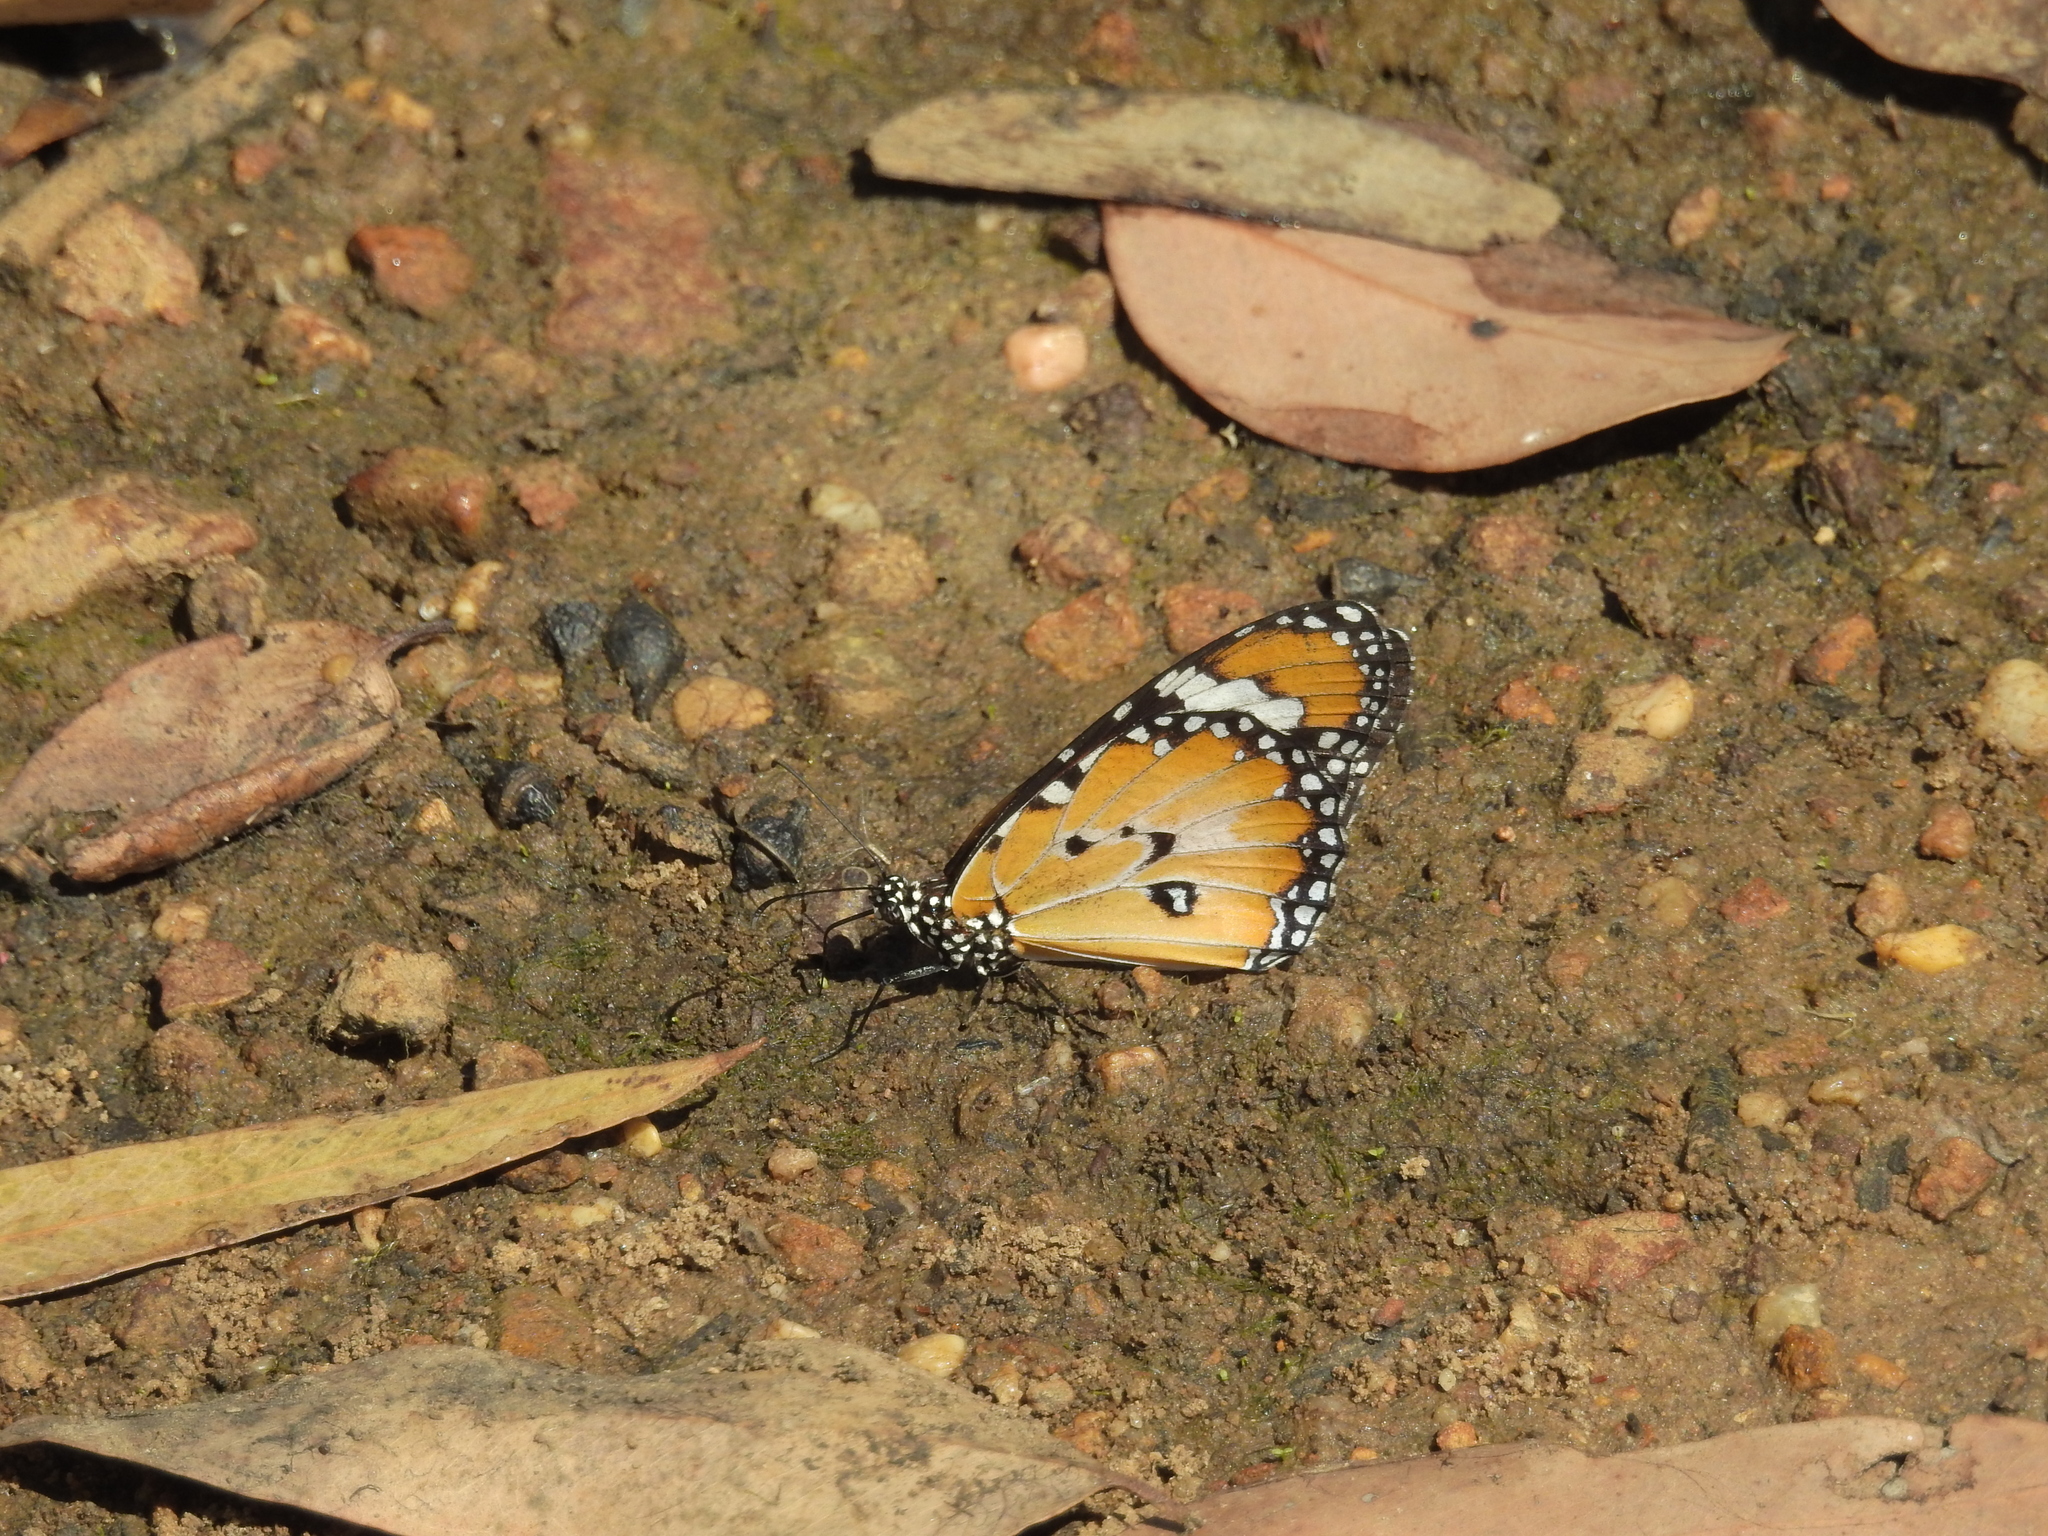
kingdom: Animalia
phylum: Arthropoda
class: Insecta
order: Lepidoptera
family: Nymphalidae
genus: Danaus
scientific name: Danaus chrysippus
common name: Plain tiger
